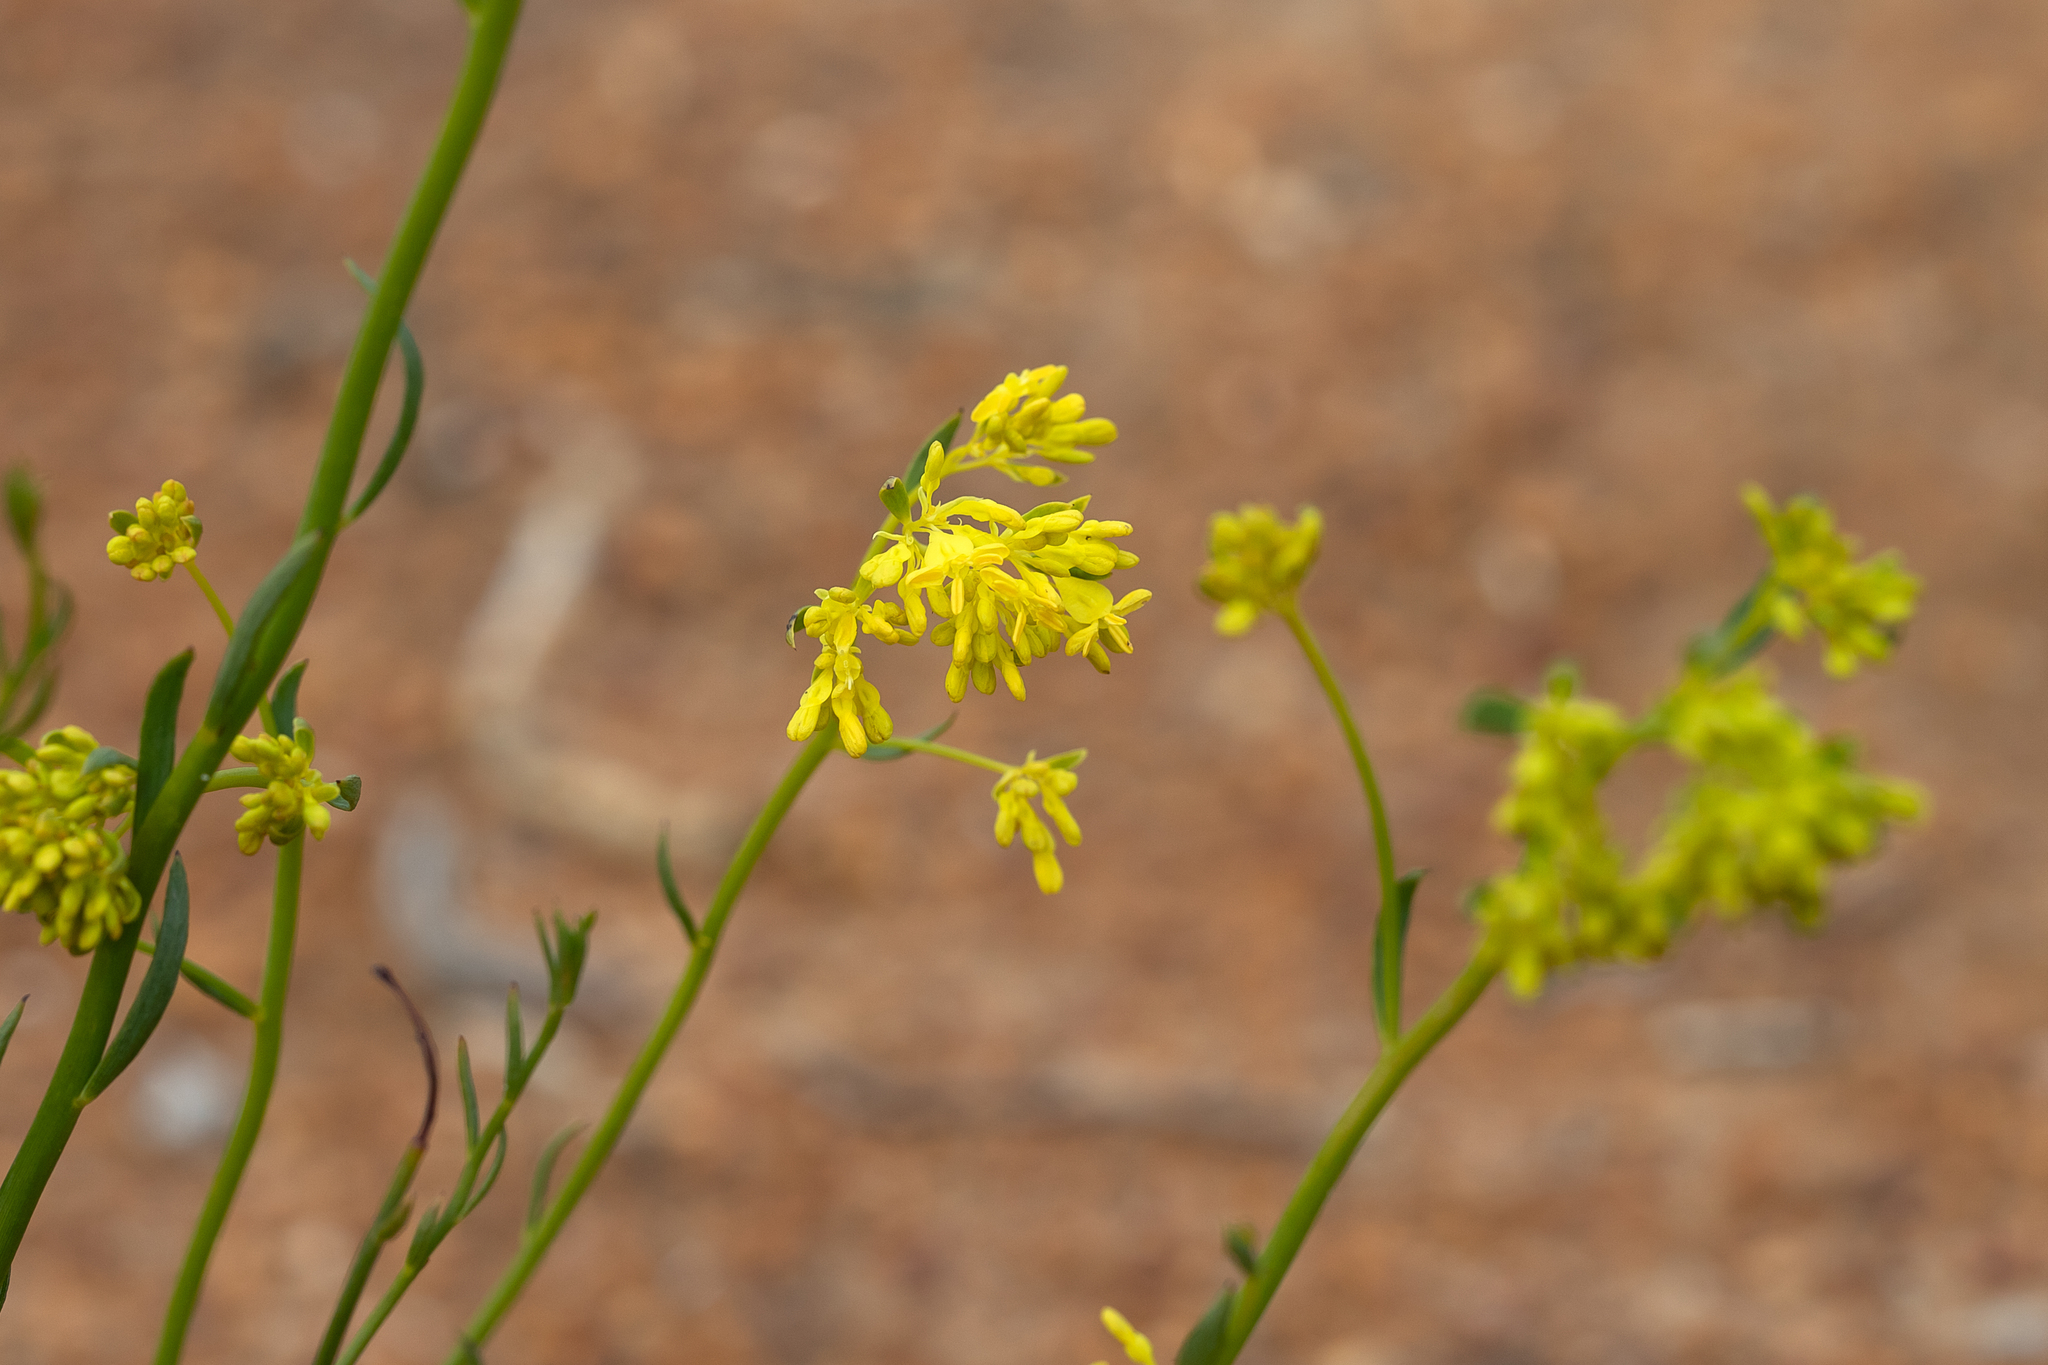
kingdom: Plantae
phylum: Tracheophyta
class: Magnoliopsida
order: Saxifragales
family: Haloragaceae
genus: Glischrocaryon
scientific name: Glischrocaryon behrii
